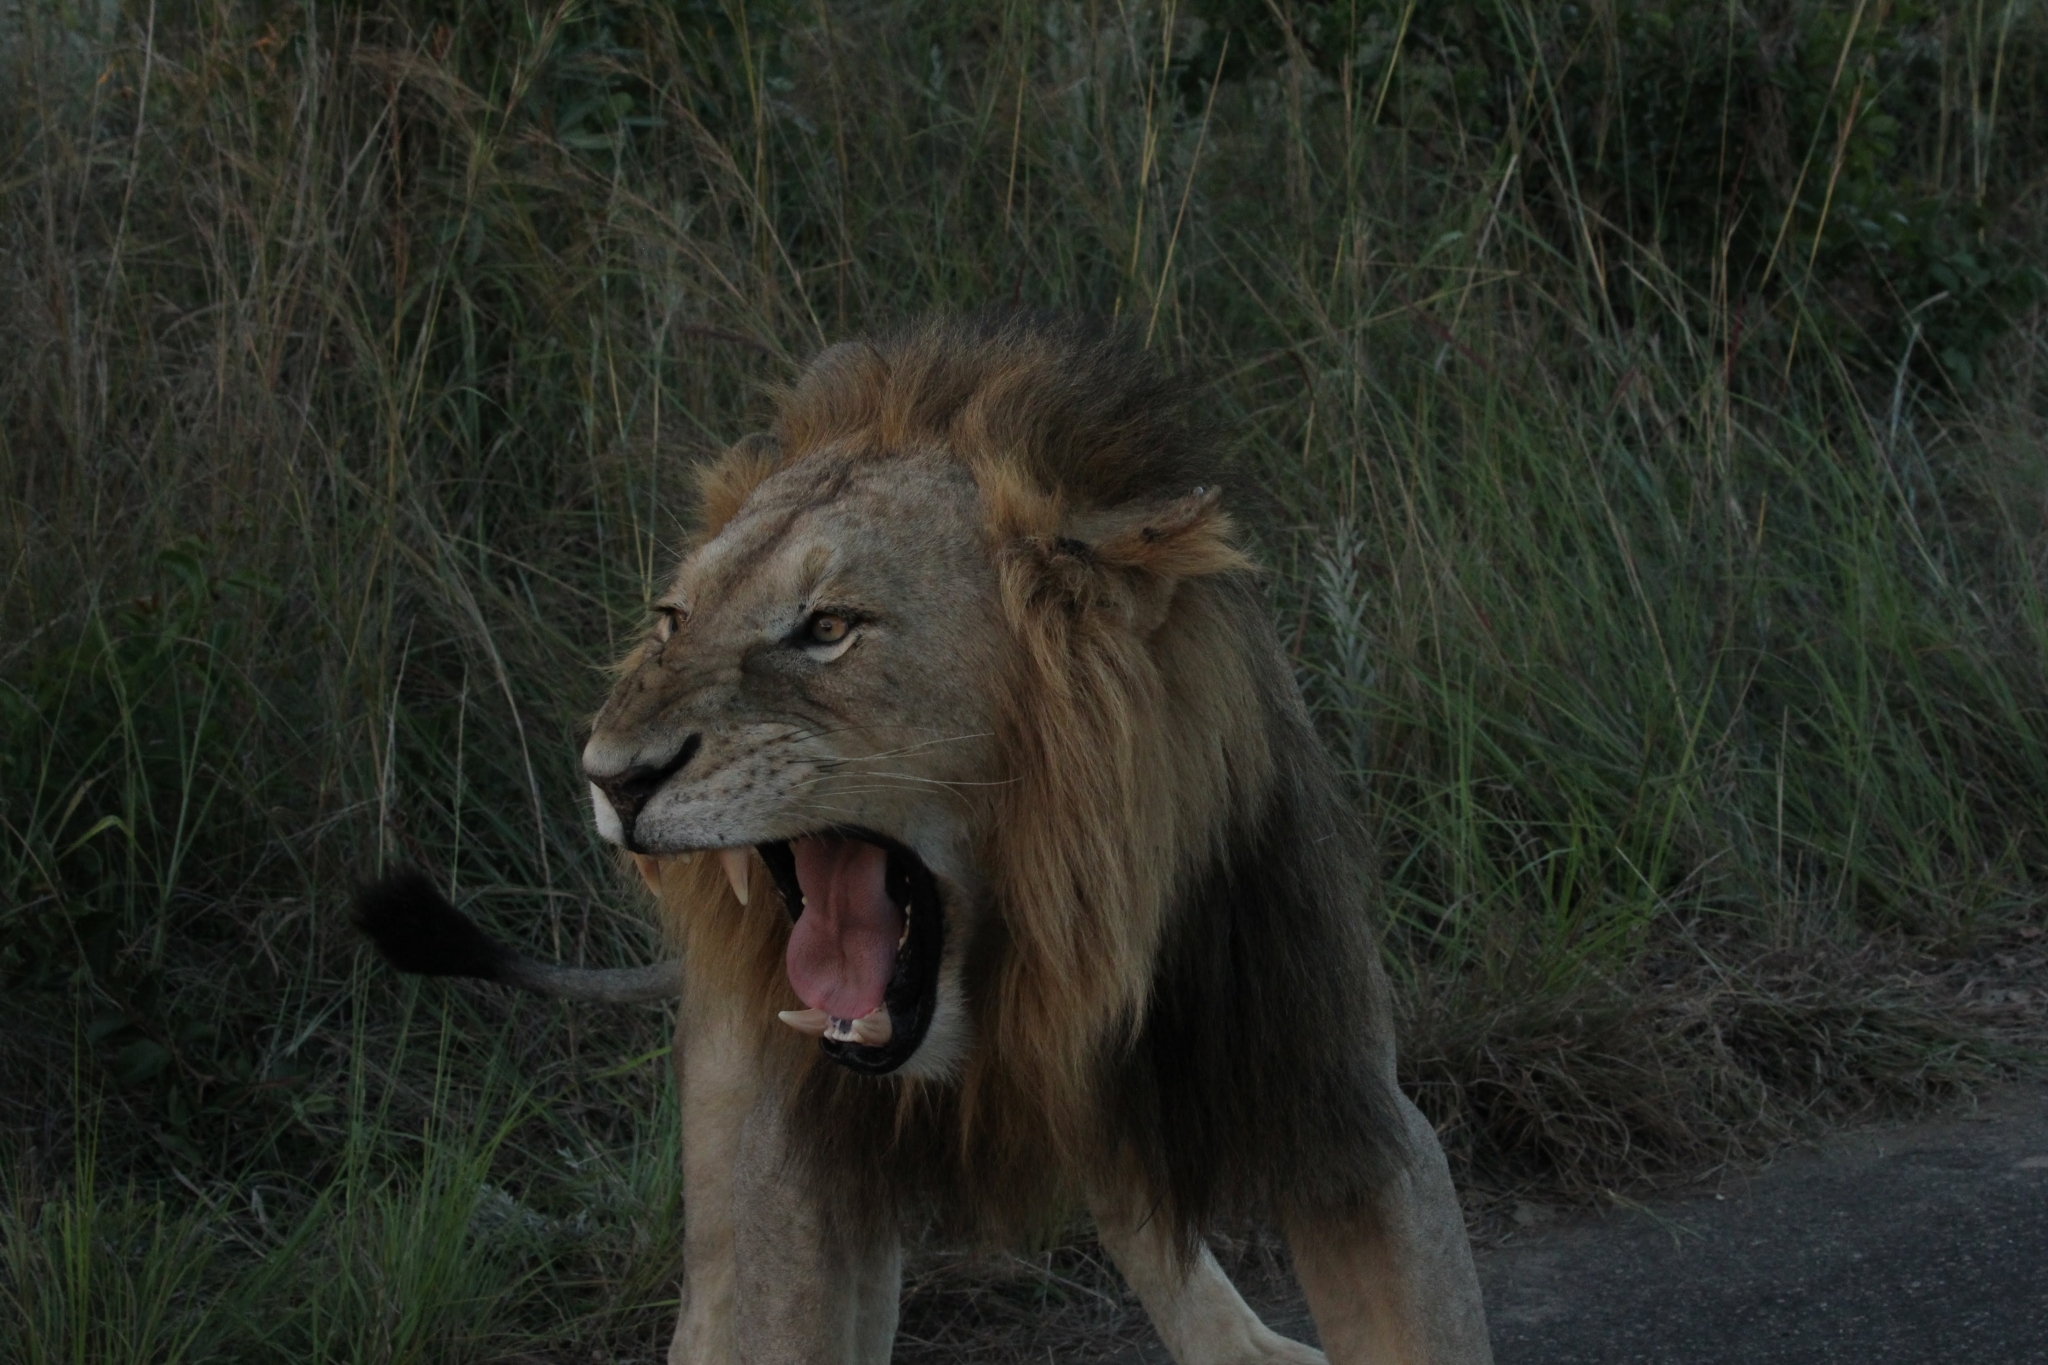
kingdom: Animalia
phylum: Chordata
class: Mammalia
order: Carnivora
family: Felidae
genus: Panthera
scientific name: Panthera leo
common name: Lion
